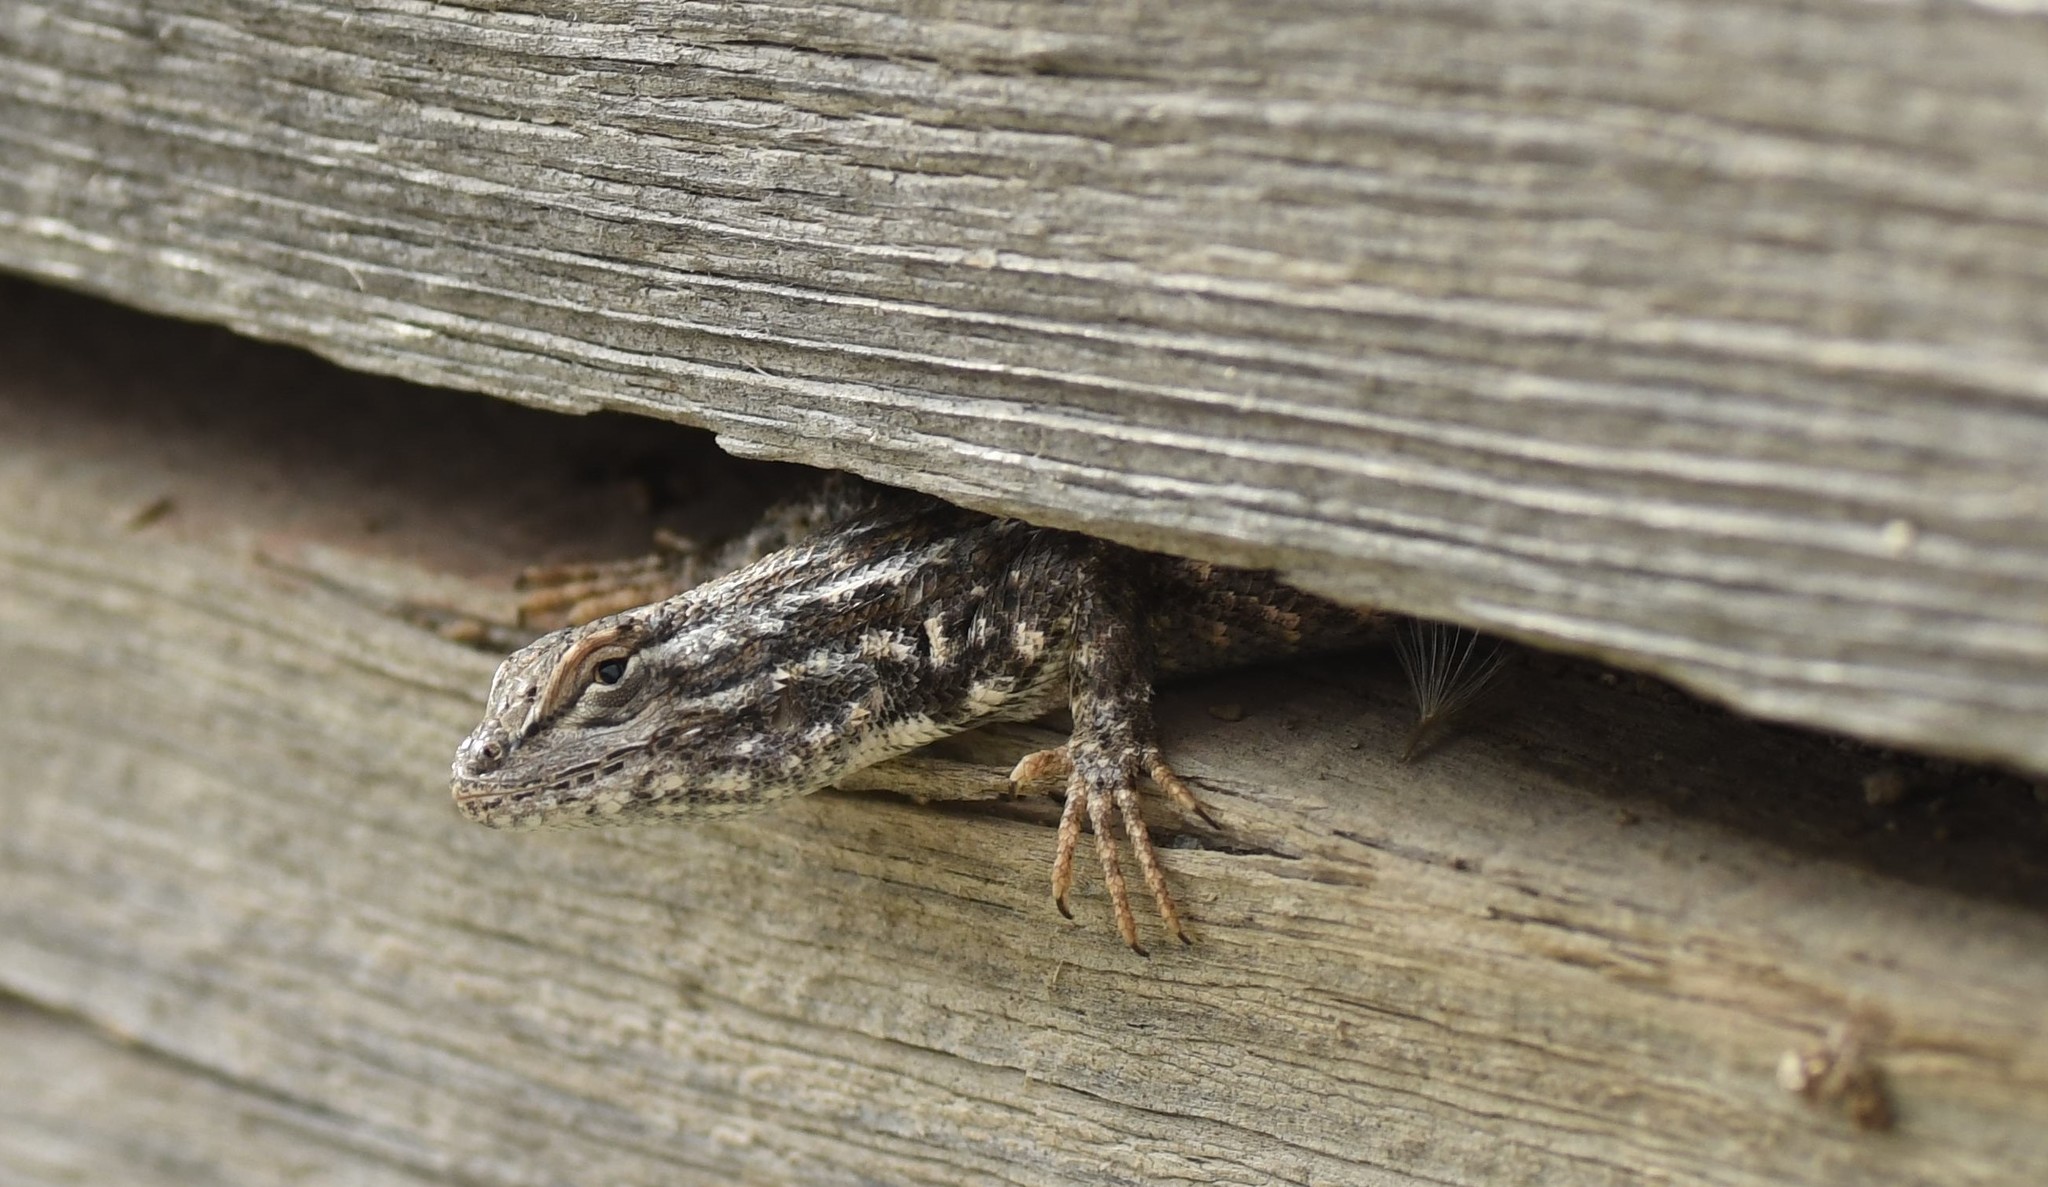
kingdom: Animalia
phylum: Chordata
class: Squamata
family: Phrynosomatidae
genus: Sceloporus
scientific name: Sceloporus graciosus
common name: Sagebrush lizard
